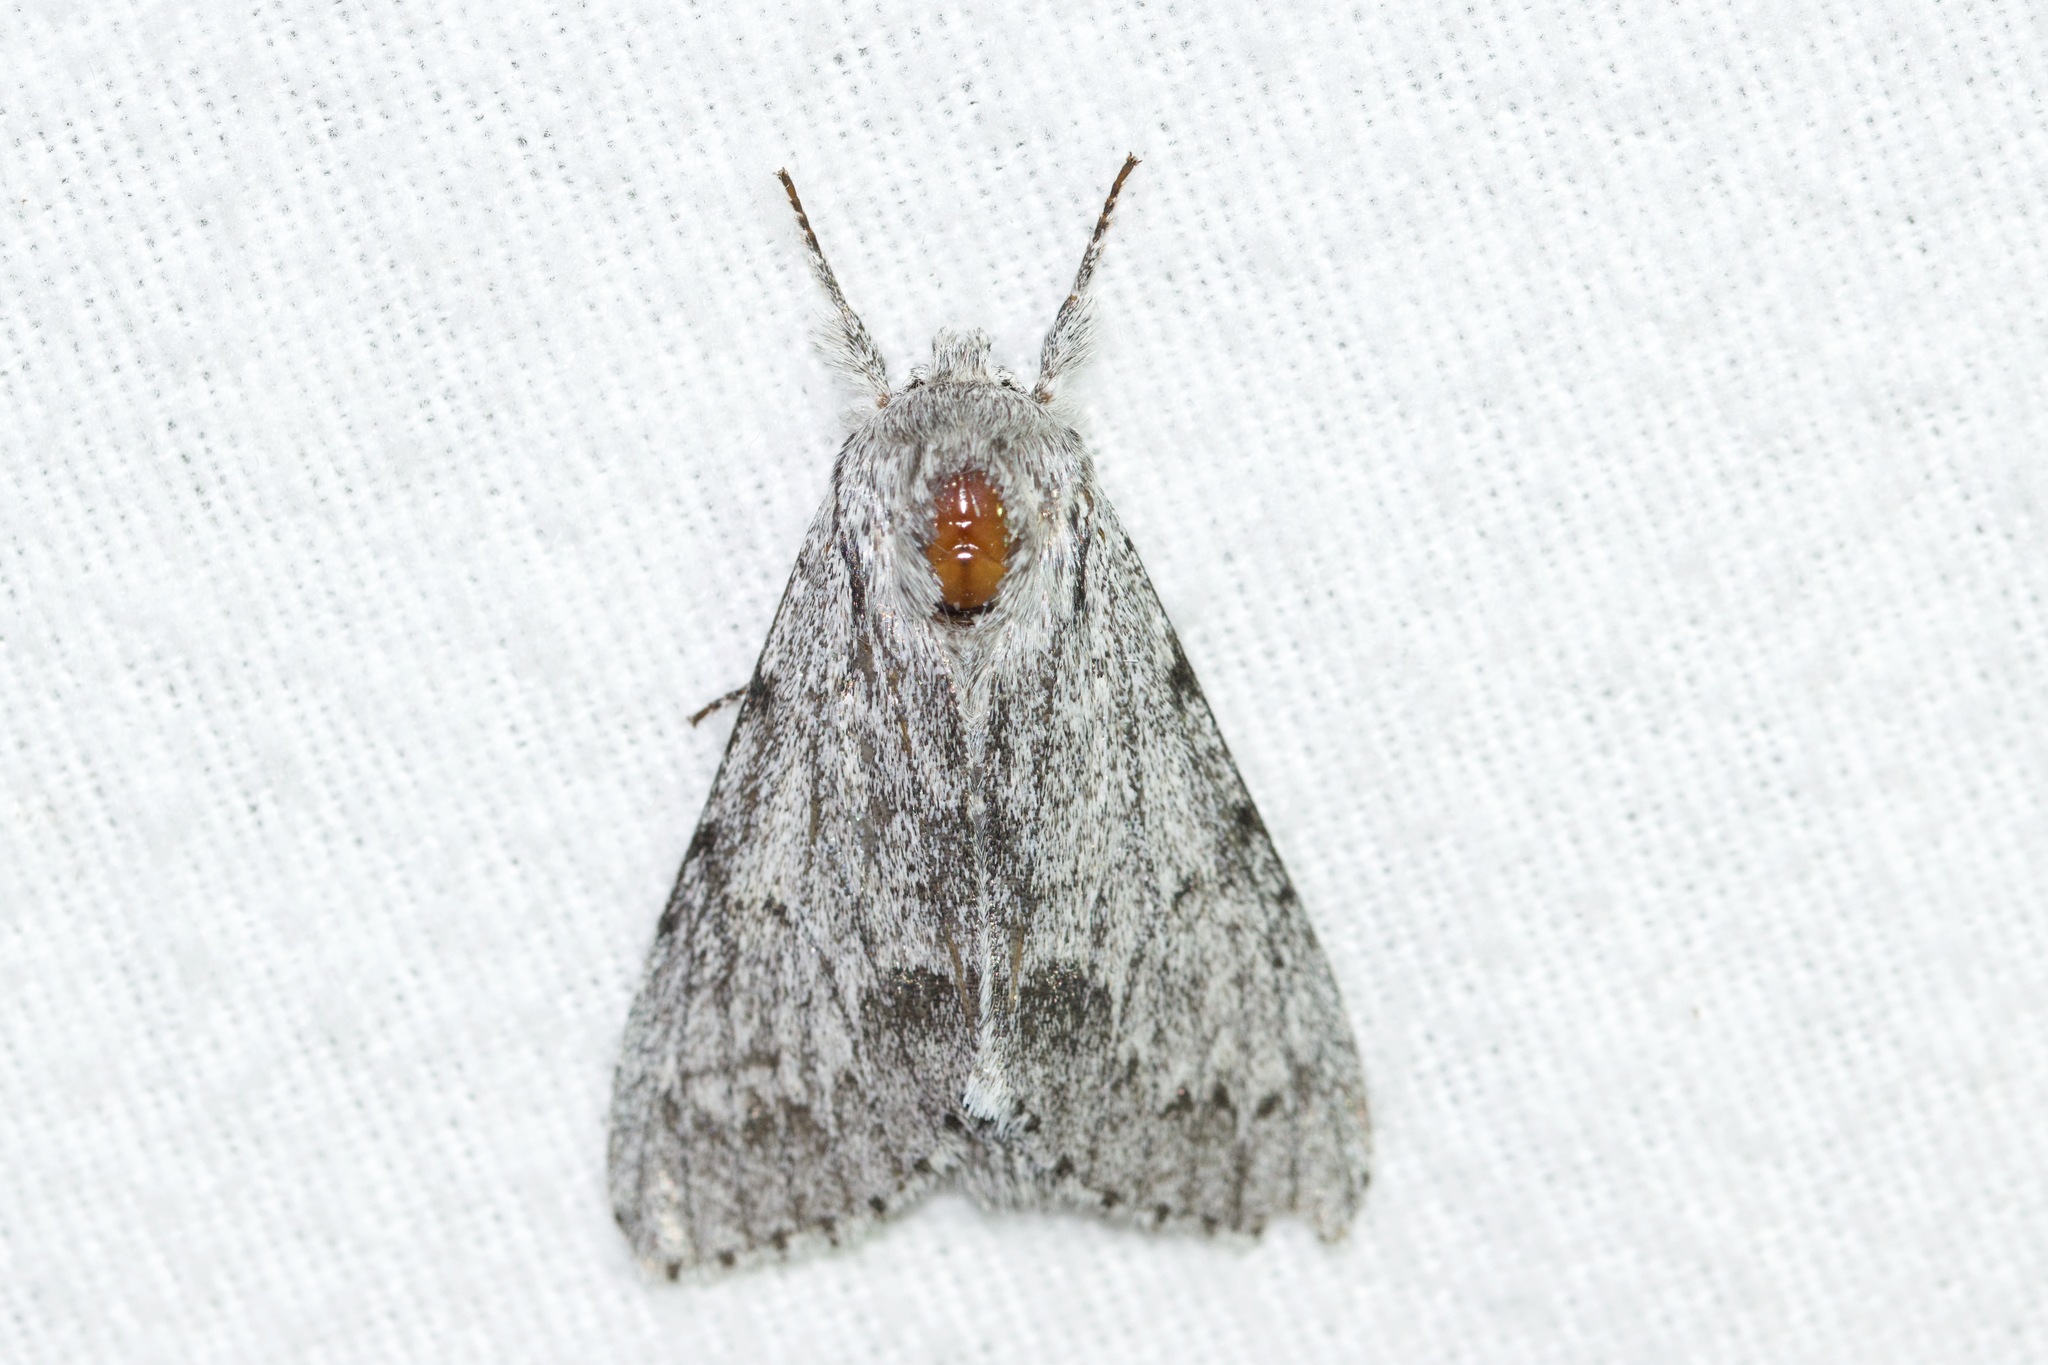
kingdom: Animalia
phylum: Arthropoda
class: Insecta
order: Lepidoptera
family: Noctuidae
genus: Acronicta
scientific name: Acronicta lepusculina
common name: Cottonwood dagger
